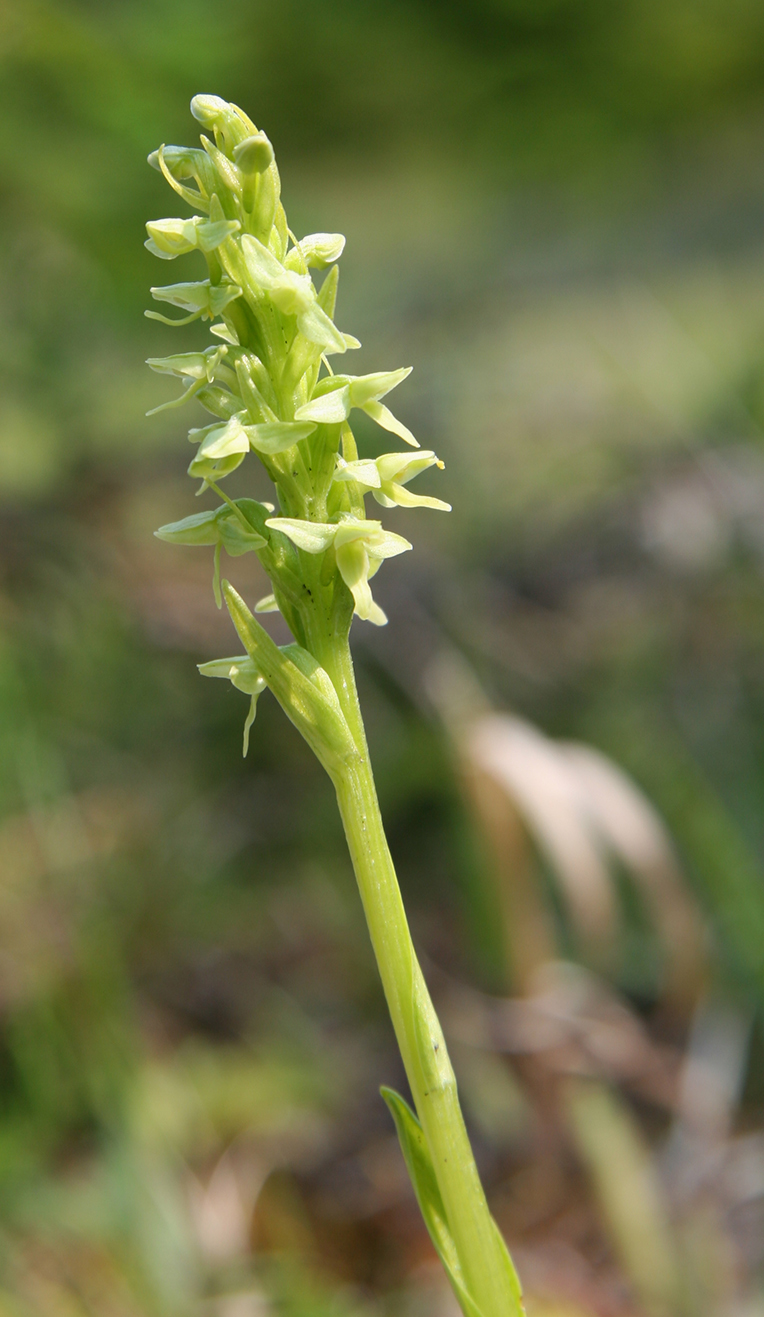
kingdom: Plantae
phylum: Tracheophyta
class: Liliopsida
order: Asparagales
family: Orchidaceae
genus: Platanthera
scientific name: Platanthera huronensis
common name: Fragrant green orchid
